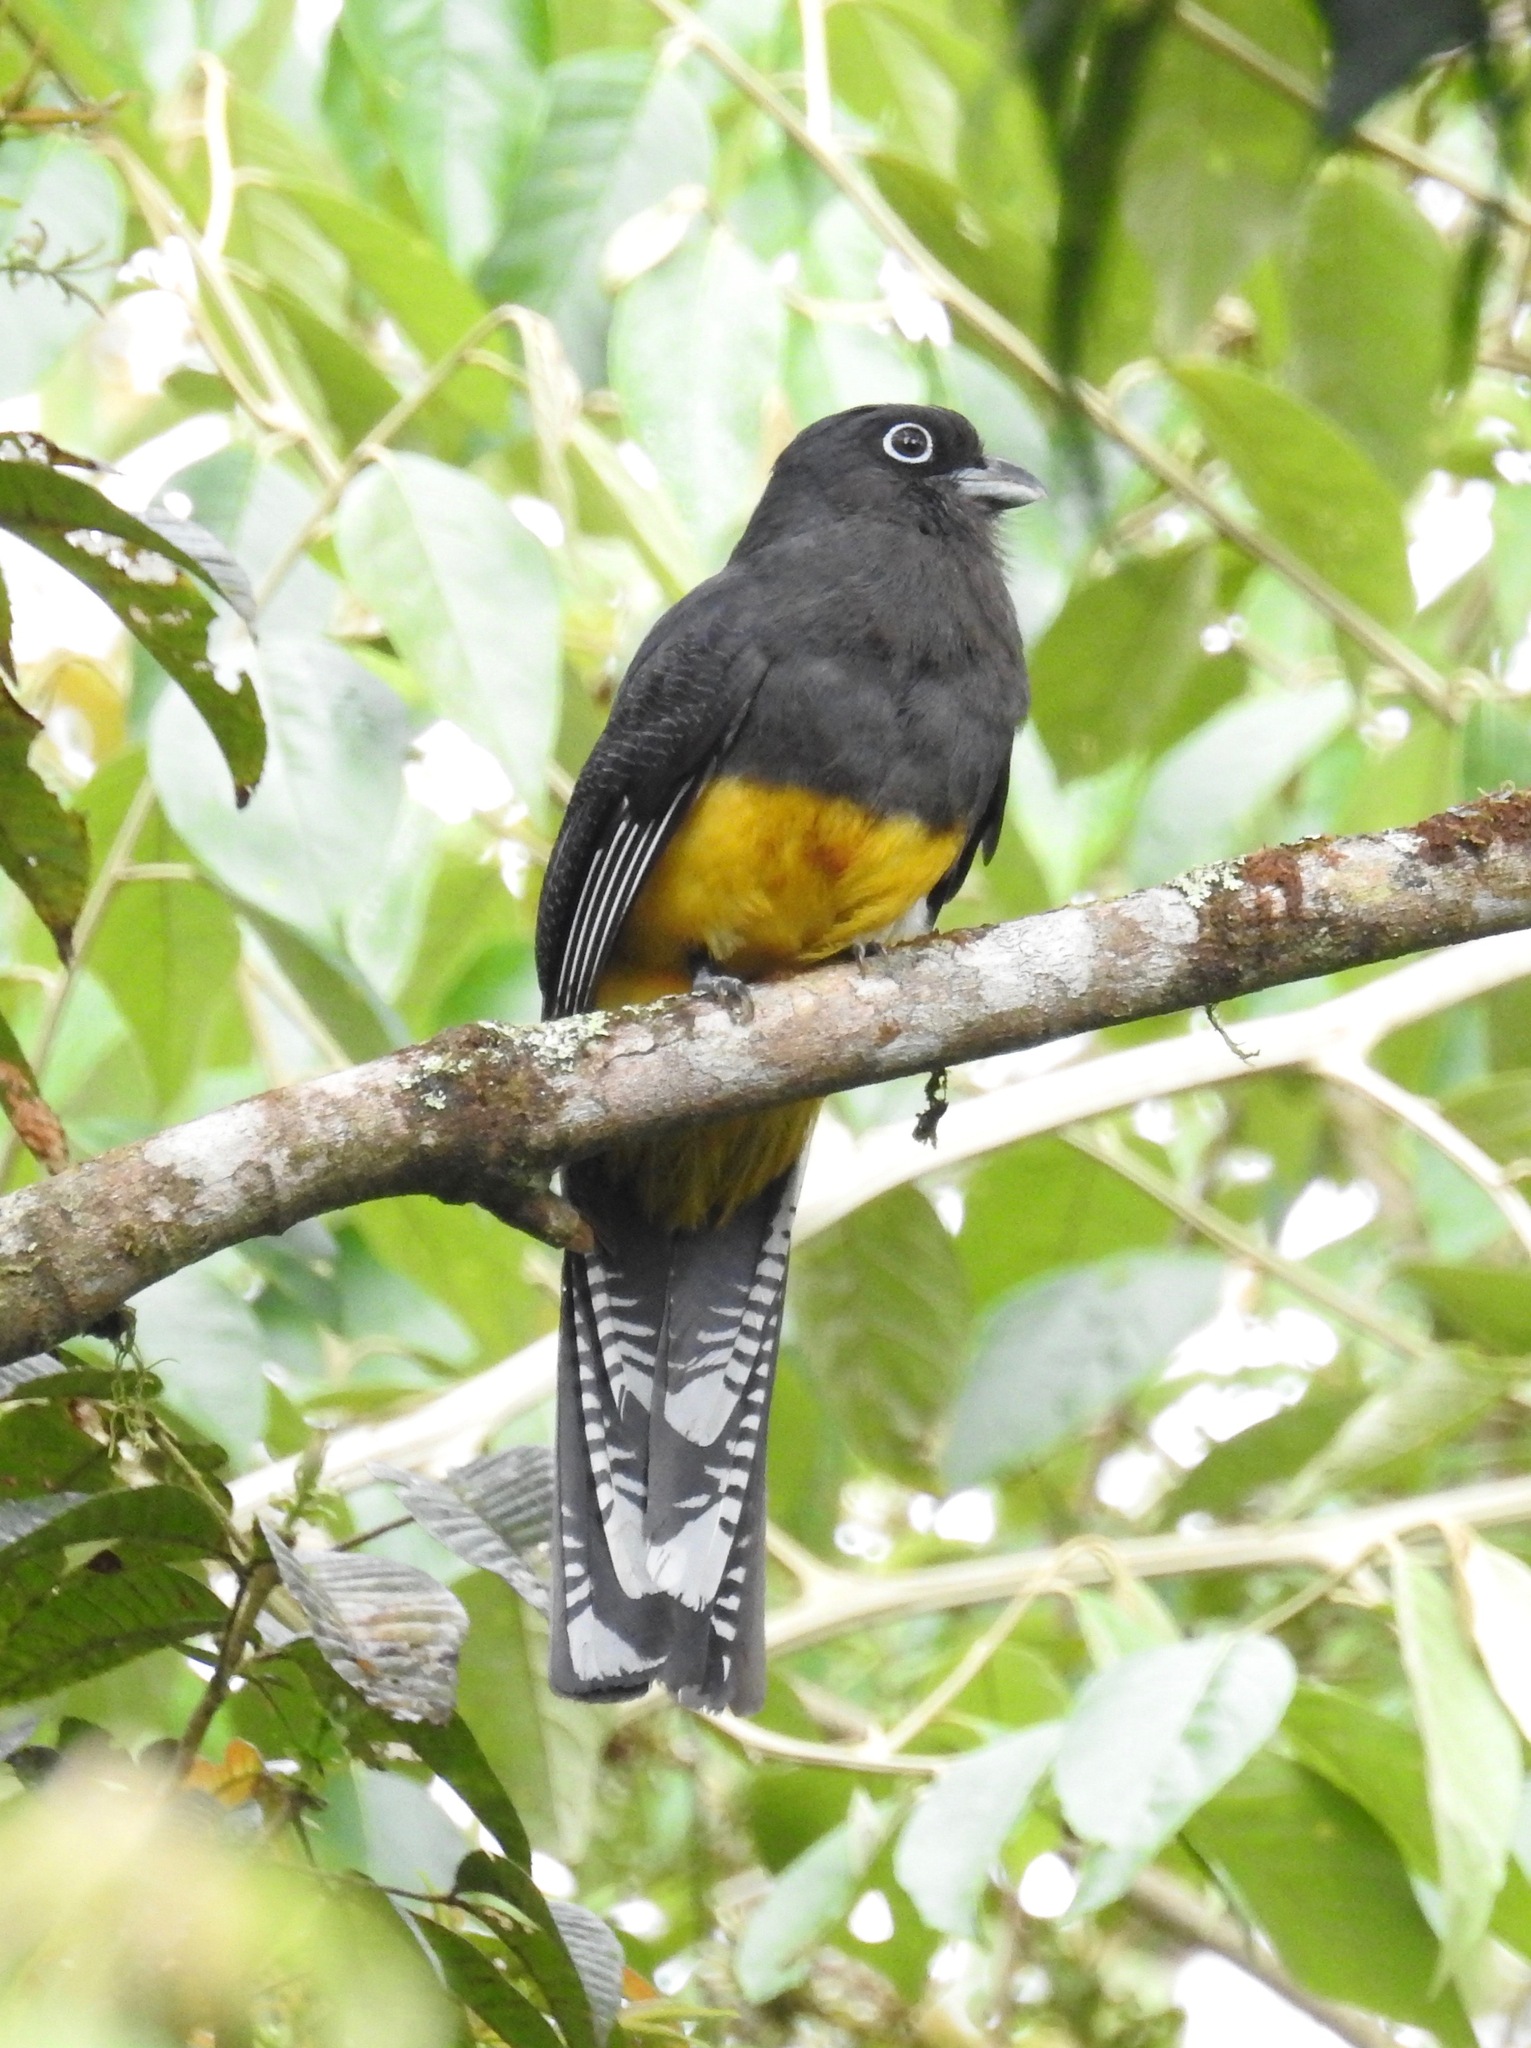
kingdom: Animalia
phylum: Chordata
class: Aves
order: Trogoniformes
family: Trogonidae
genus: Trogon
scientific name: Trogon viridis
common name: Green-backed trogon
